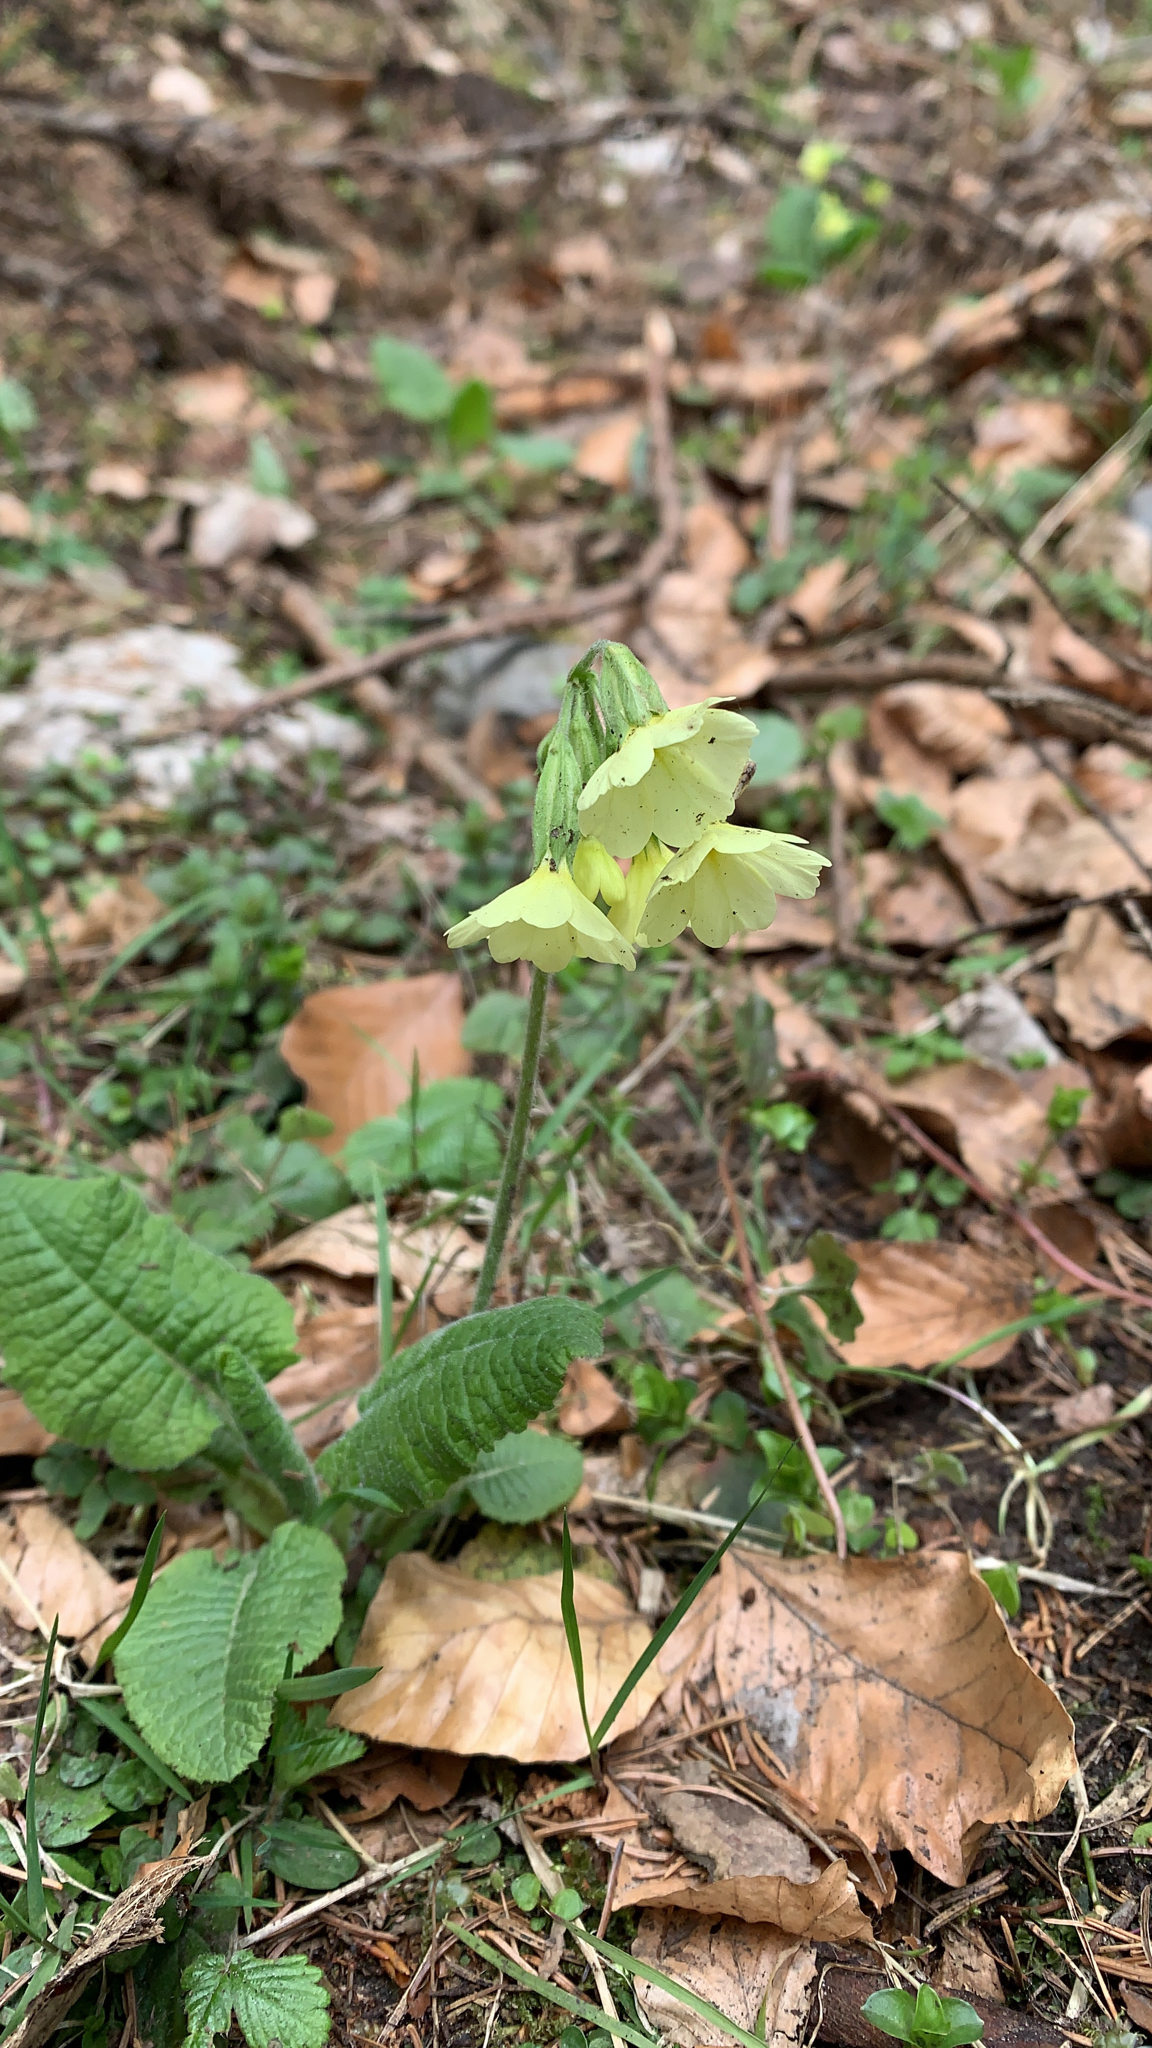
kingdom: Plantae
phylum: Tracheophyta
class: Magnoliopsida
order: Ericales
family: Primulaceae
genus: Primula
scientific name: Primula elatior
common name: Oxlip
